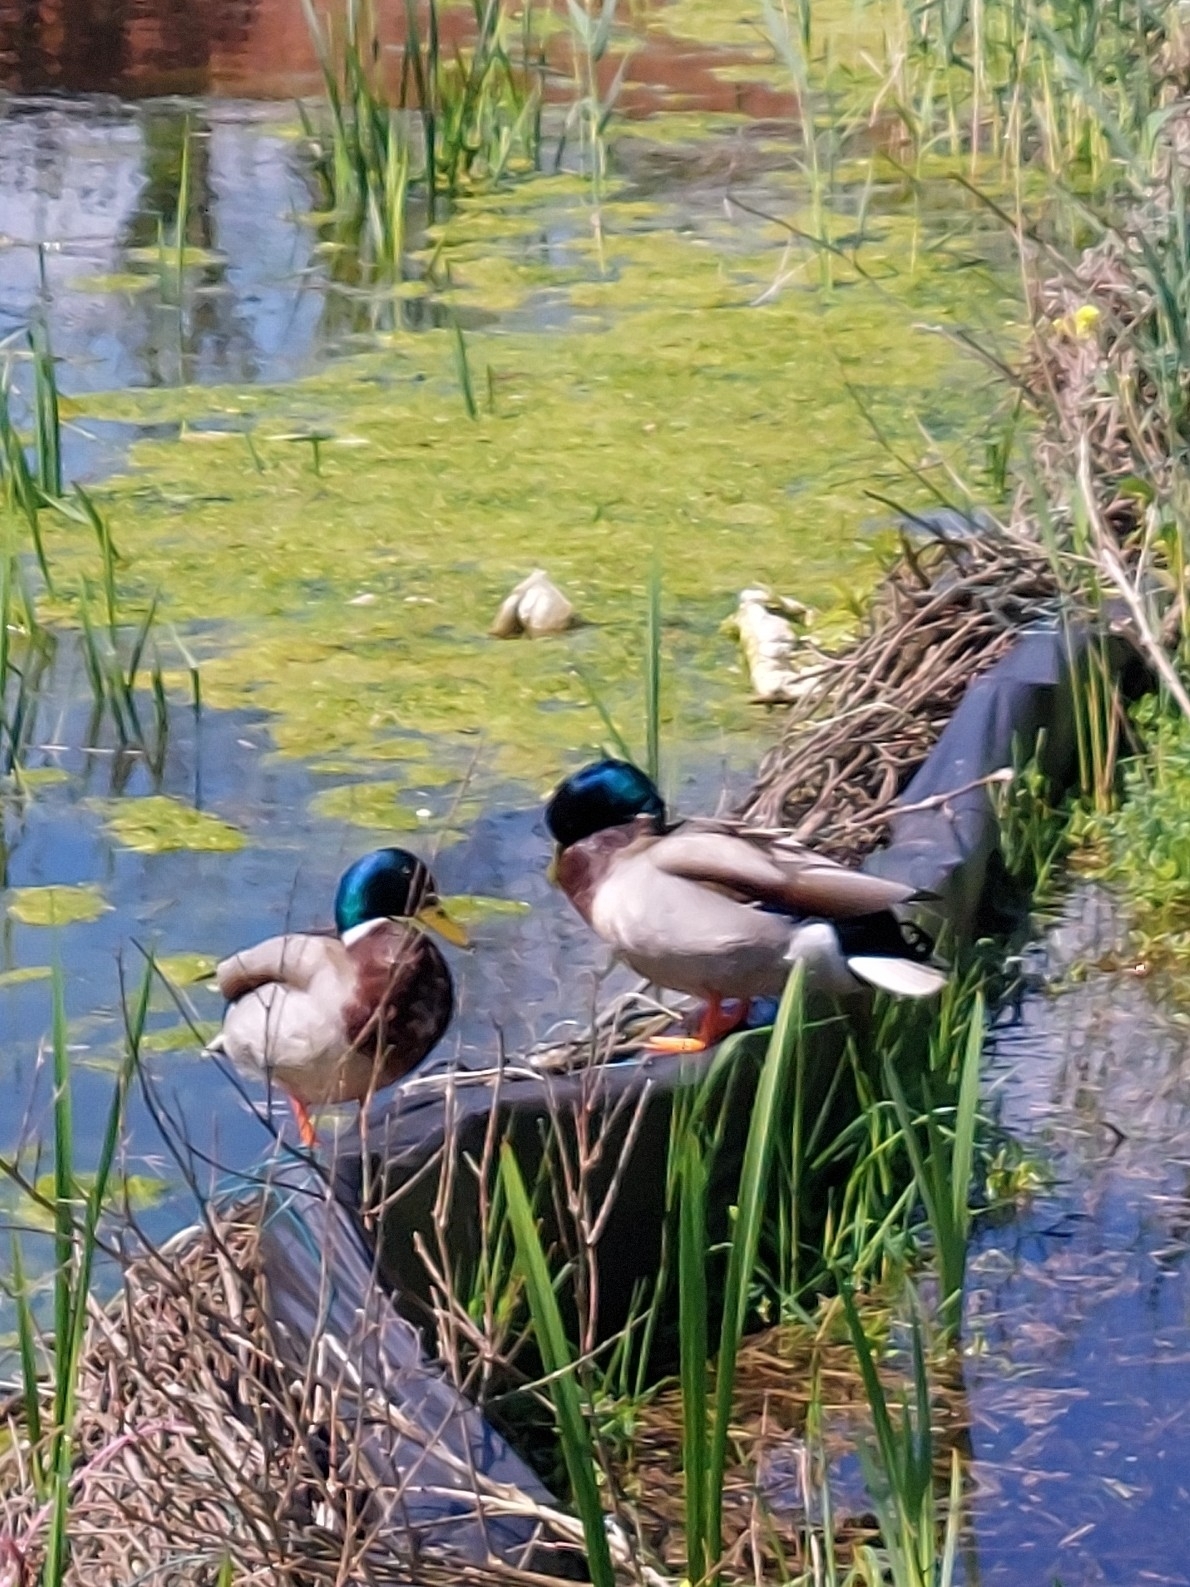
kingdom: Animalia
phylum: Chordata
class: Aves
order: Anseriformes
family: Anatidae
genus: Anas
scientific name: Anas platyrhynchos
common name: Mallard
